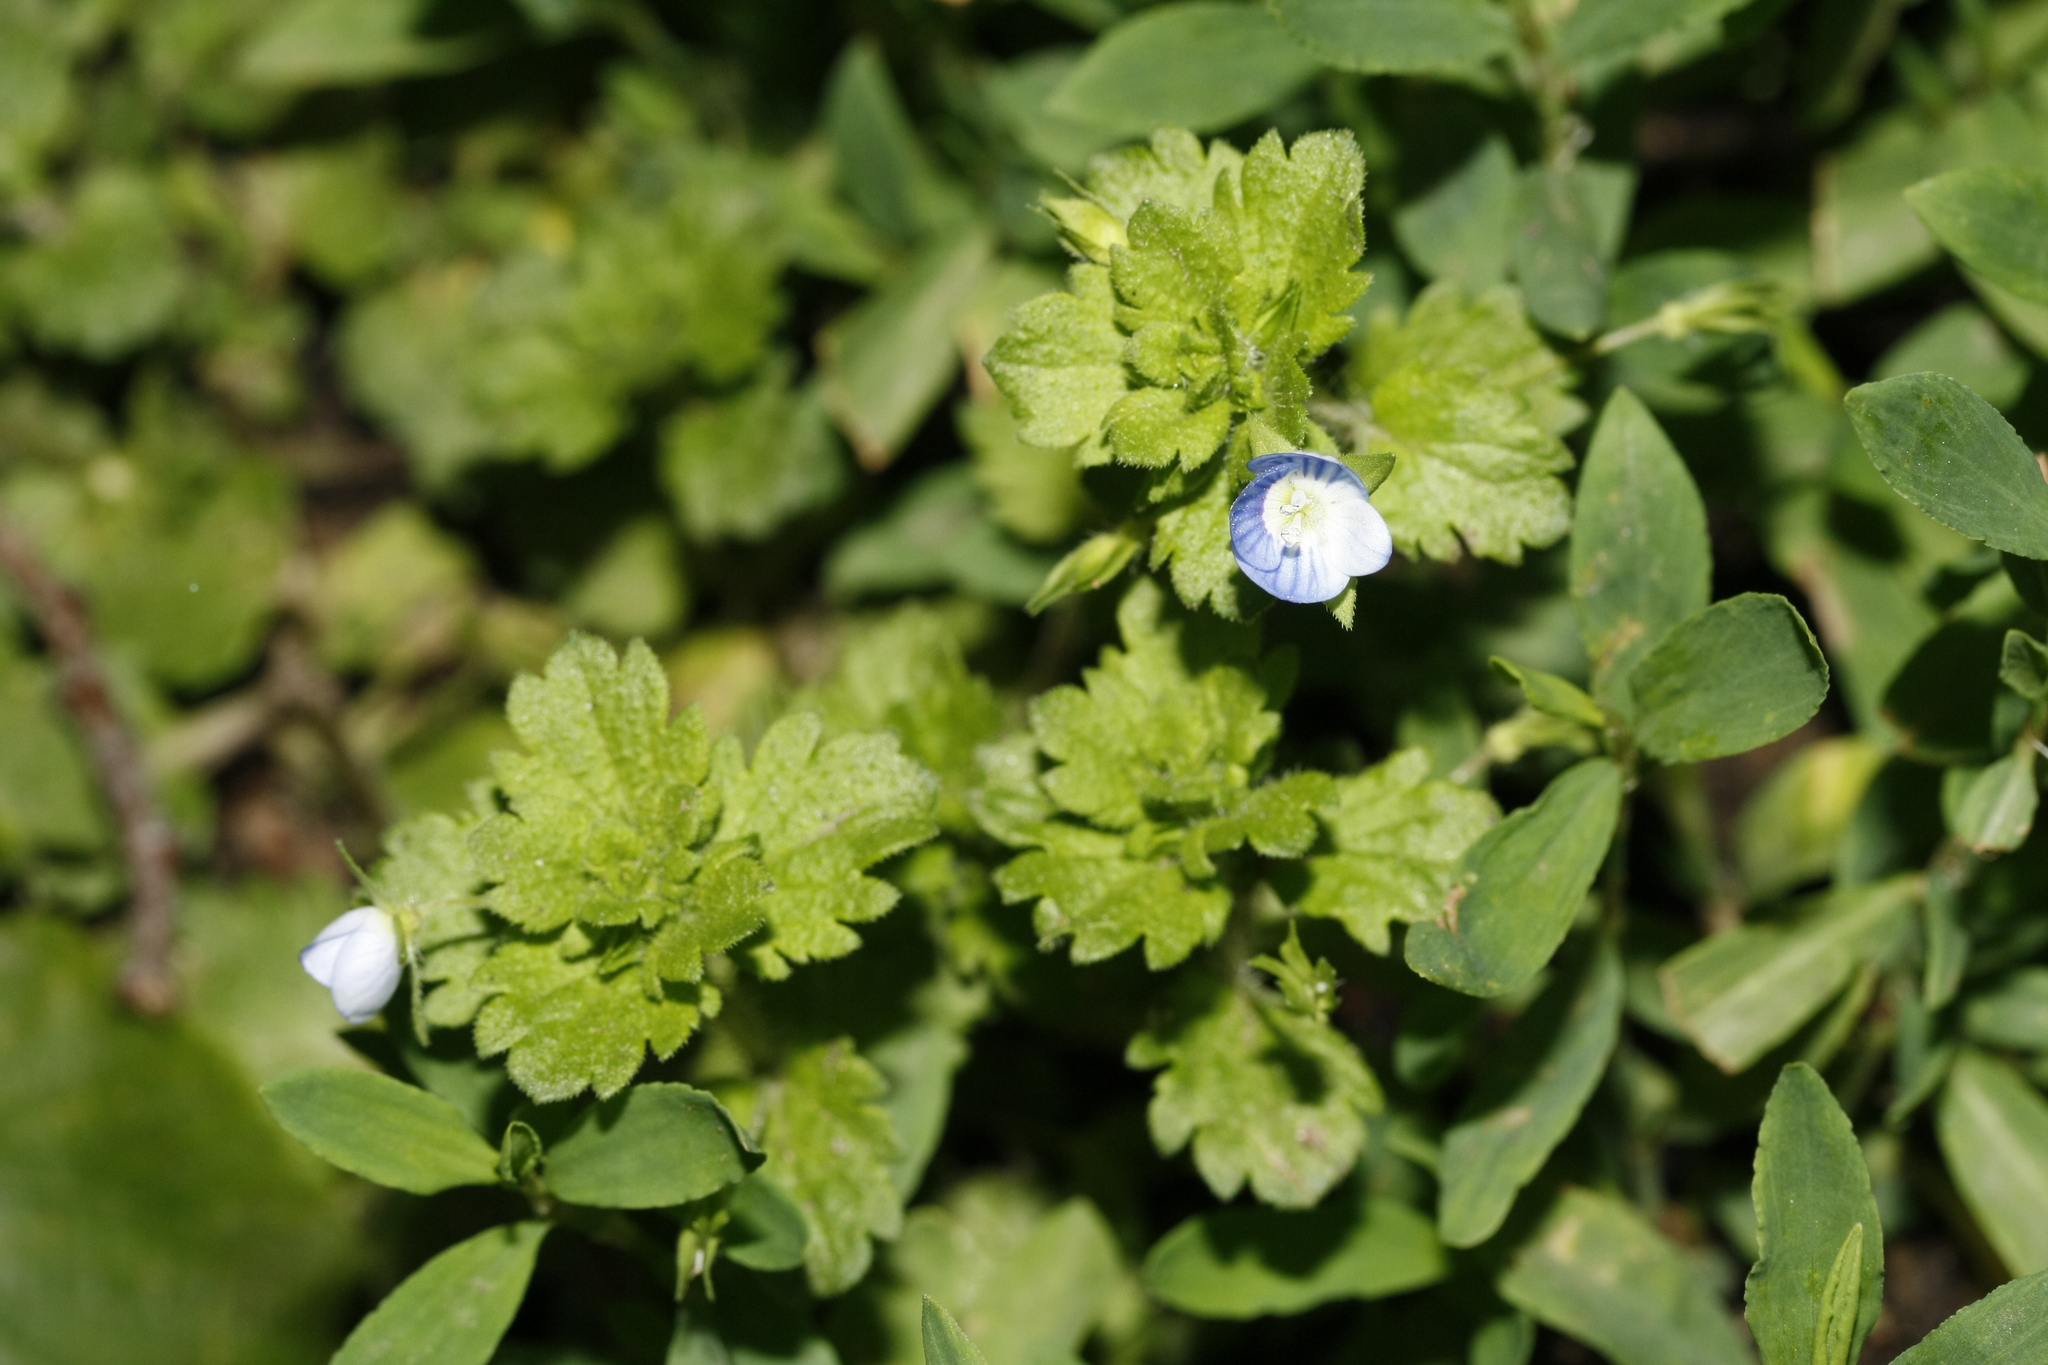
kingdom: Plantae
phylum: Tracheophyta
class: Magnoliopsida
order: Lamiales
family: Plantaginaceae
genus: Veronica
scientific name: Veronica persica
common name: Common field-speedwell
